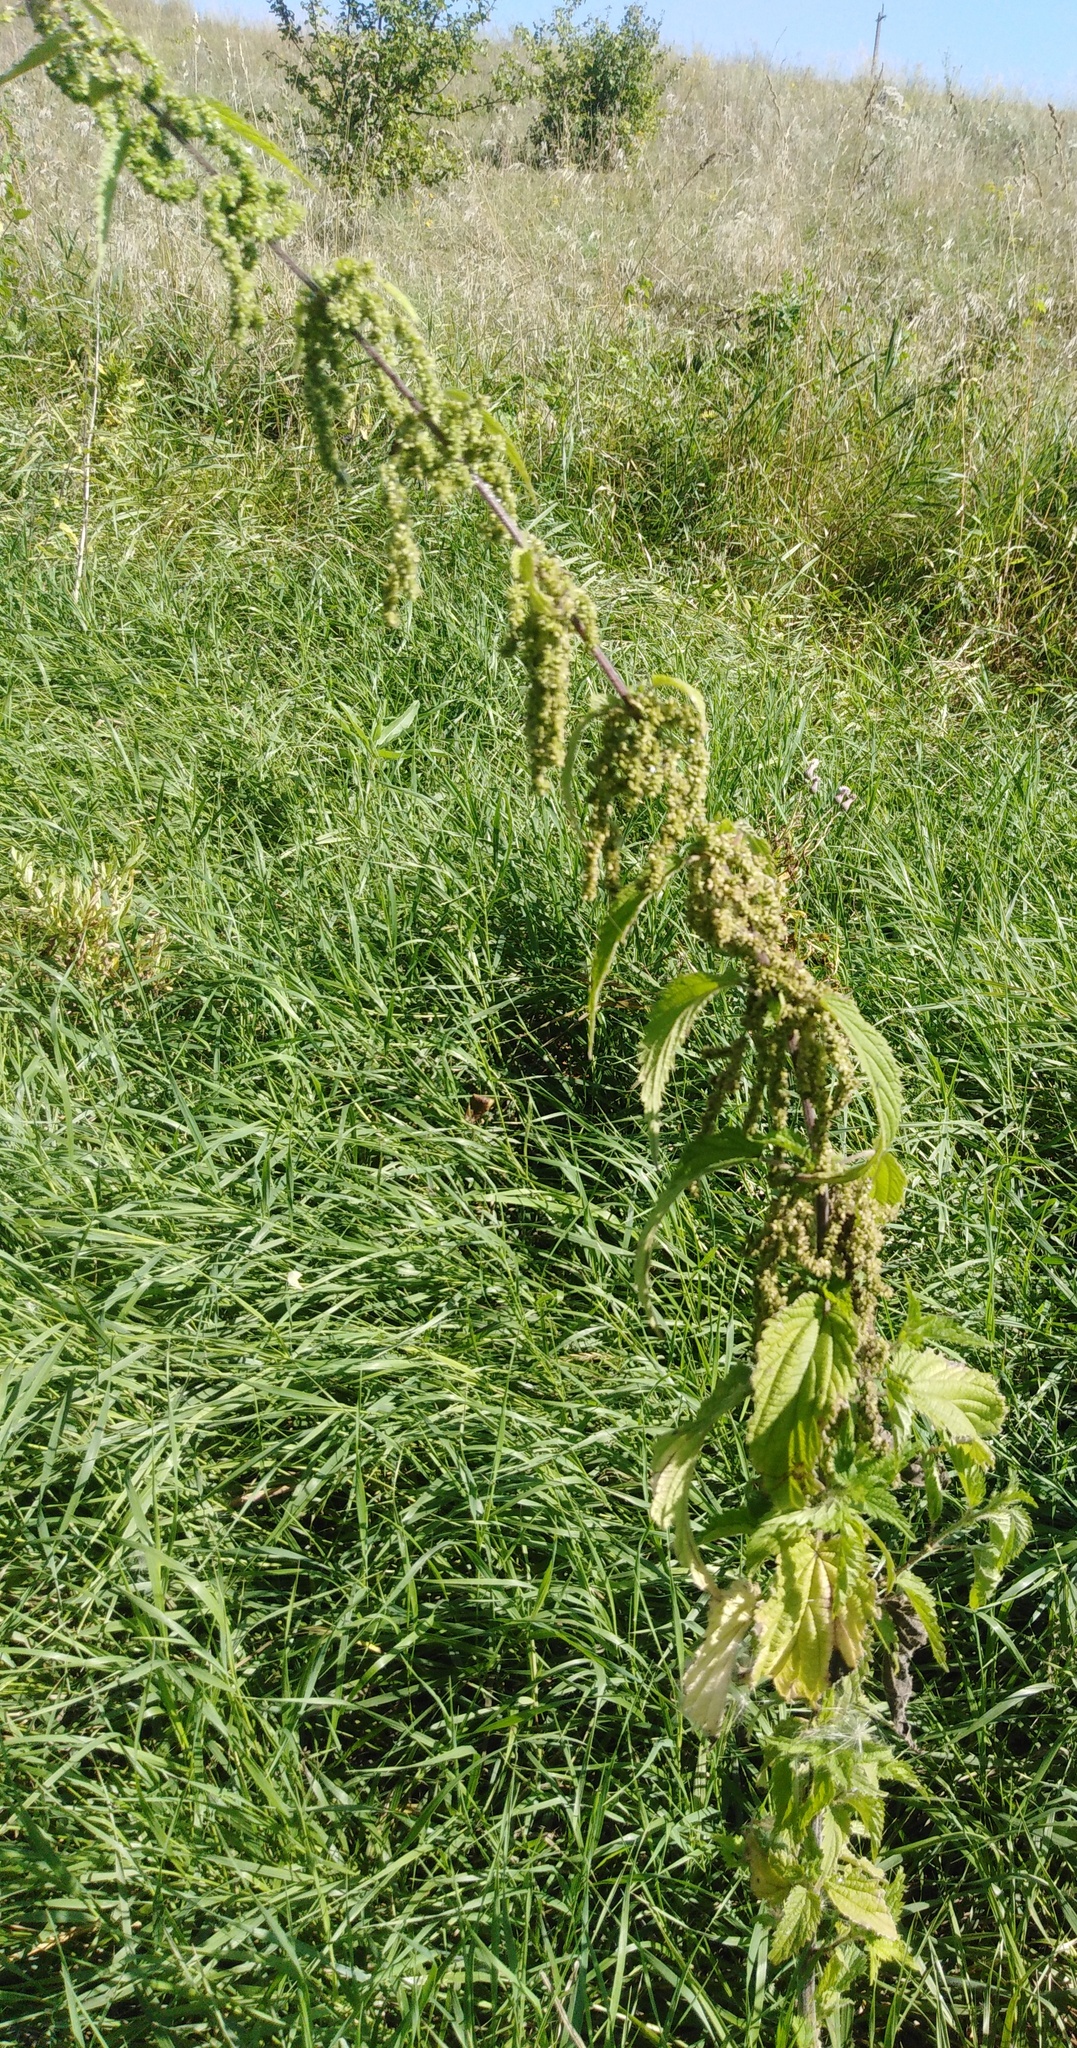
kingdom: Plantae
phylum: Tracheophyta
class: Magnoliopsida
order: Rosales
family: Urticaceae
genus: Urtica
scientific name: Urtica dioica
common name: Common nettle
